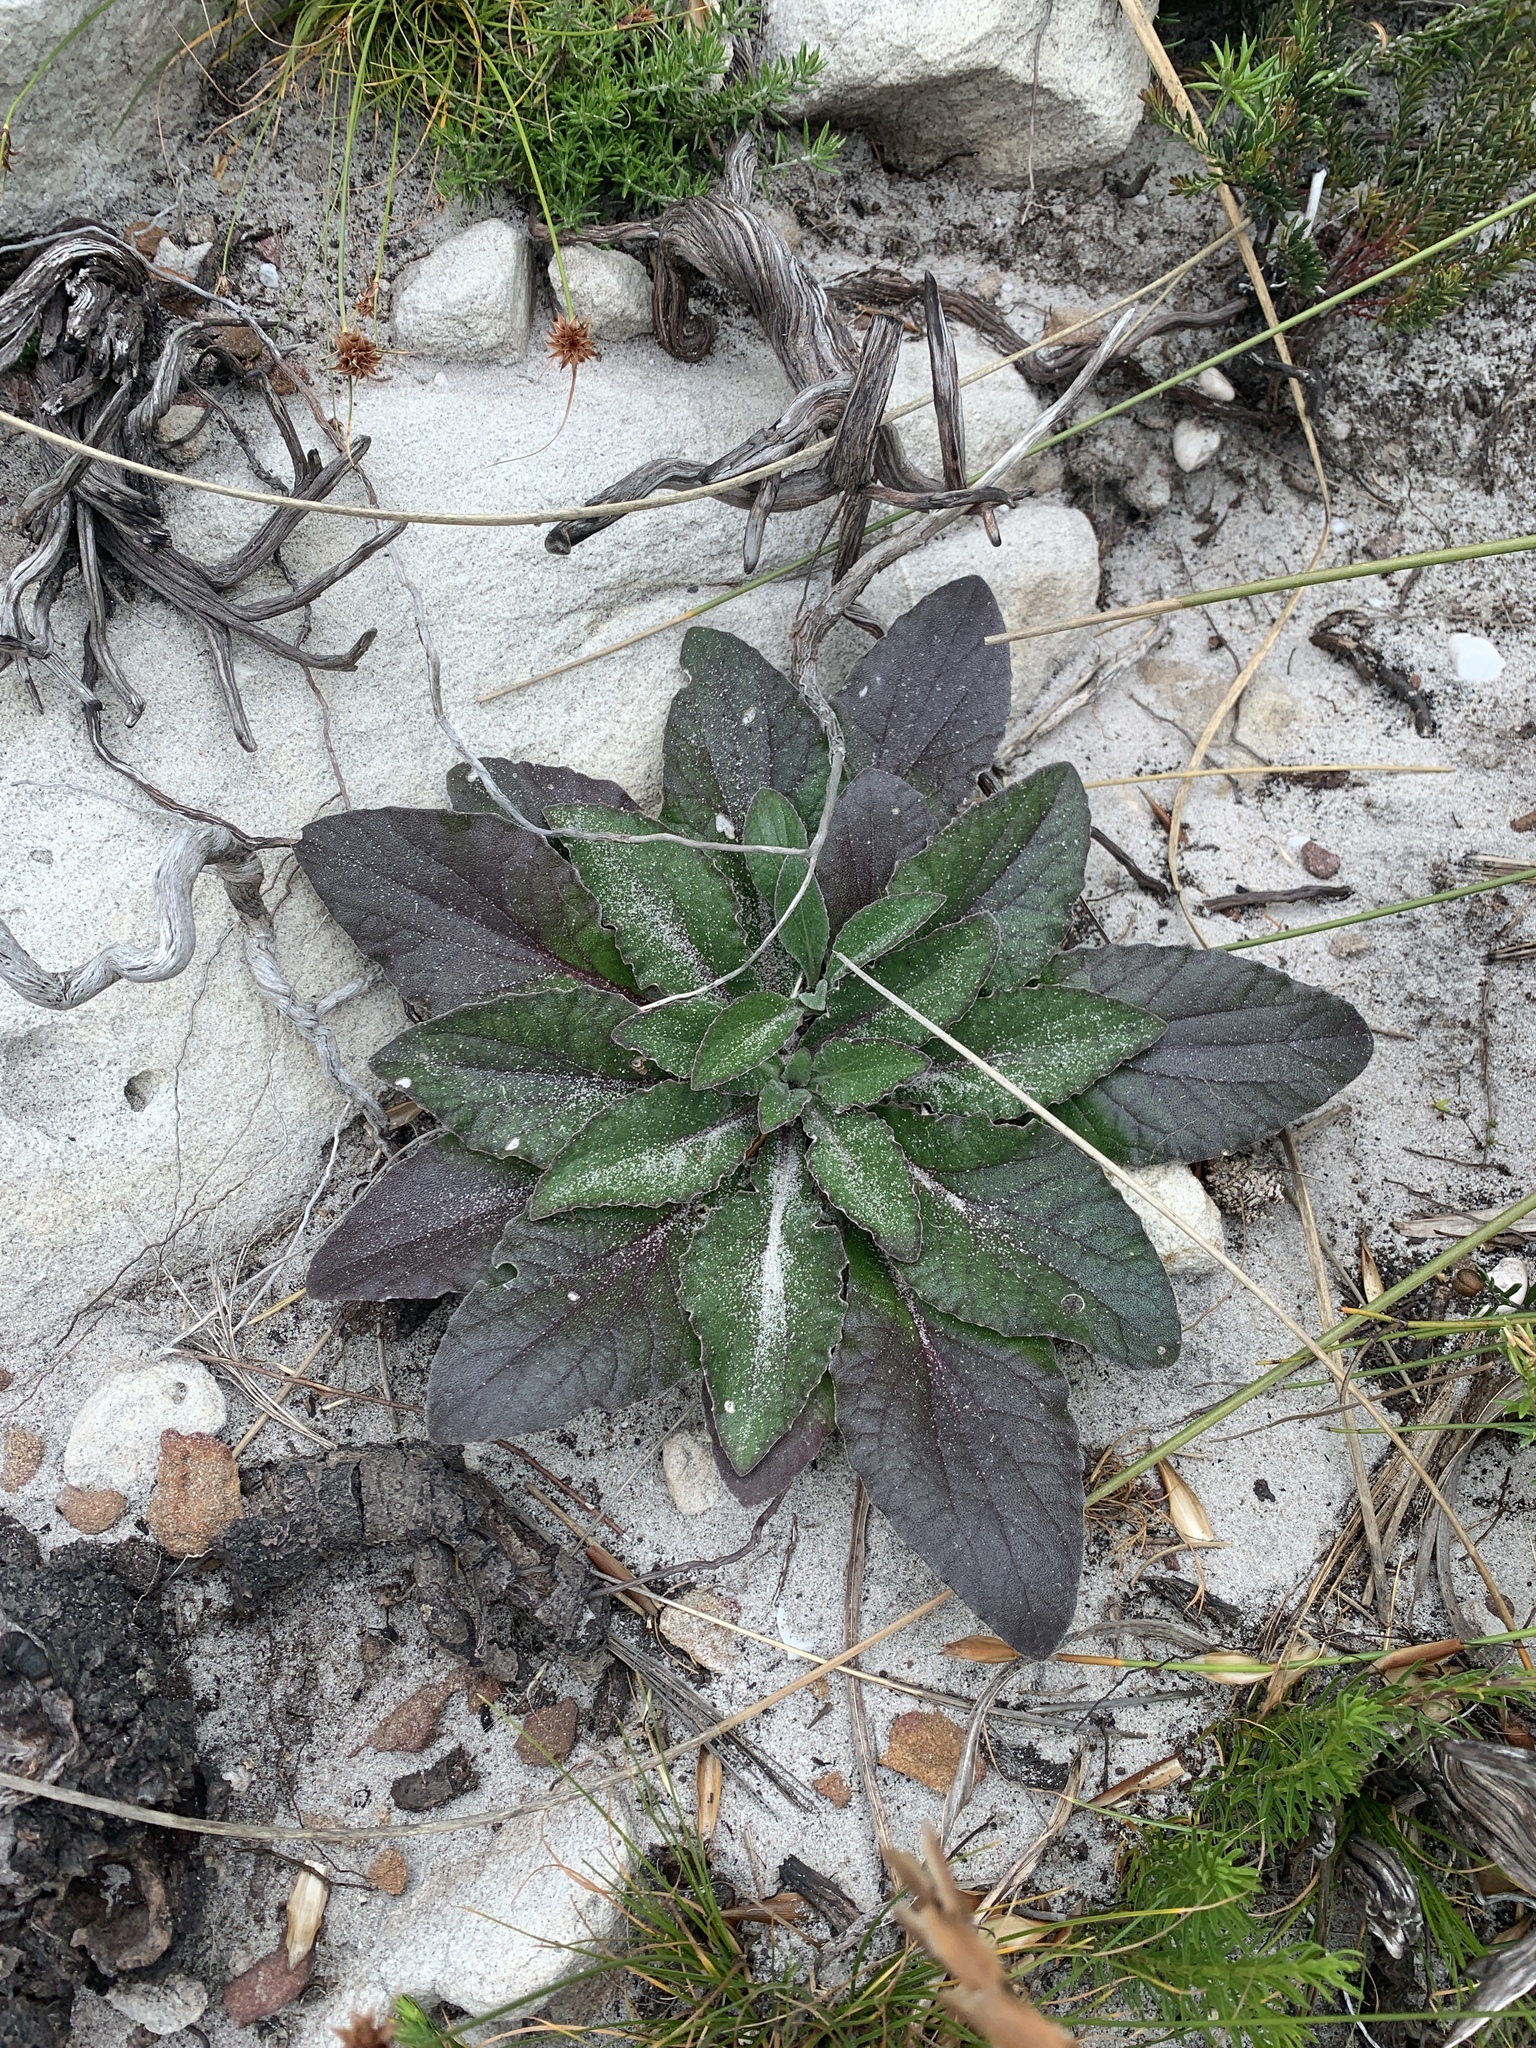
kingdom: Plantae
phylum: Tracheophyta
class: Magnoliopsida
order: Asterales
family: Asteraceae
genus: Haplocarpha
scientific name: Haplocarpha lanata
